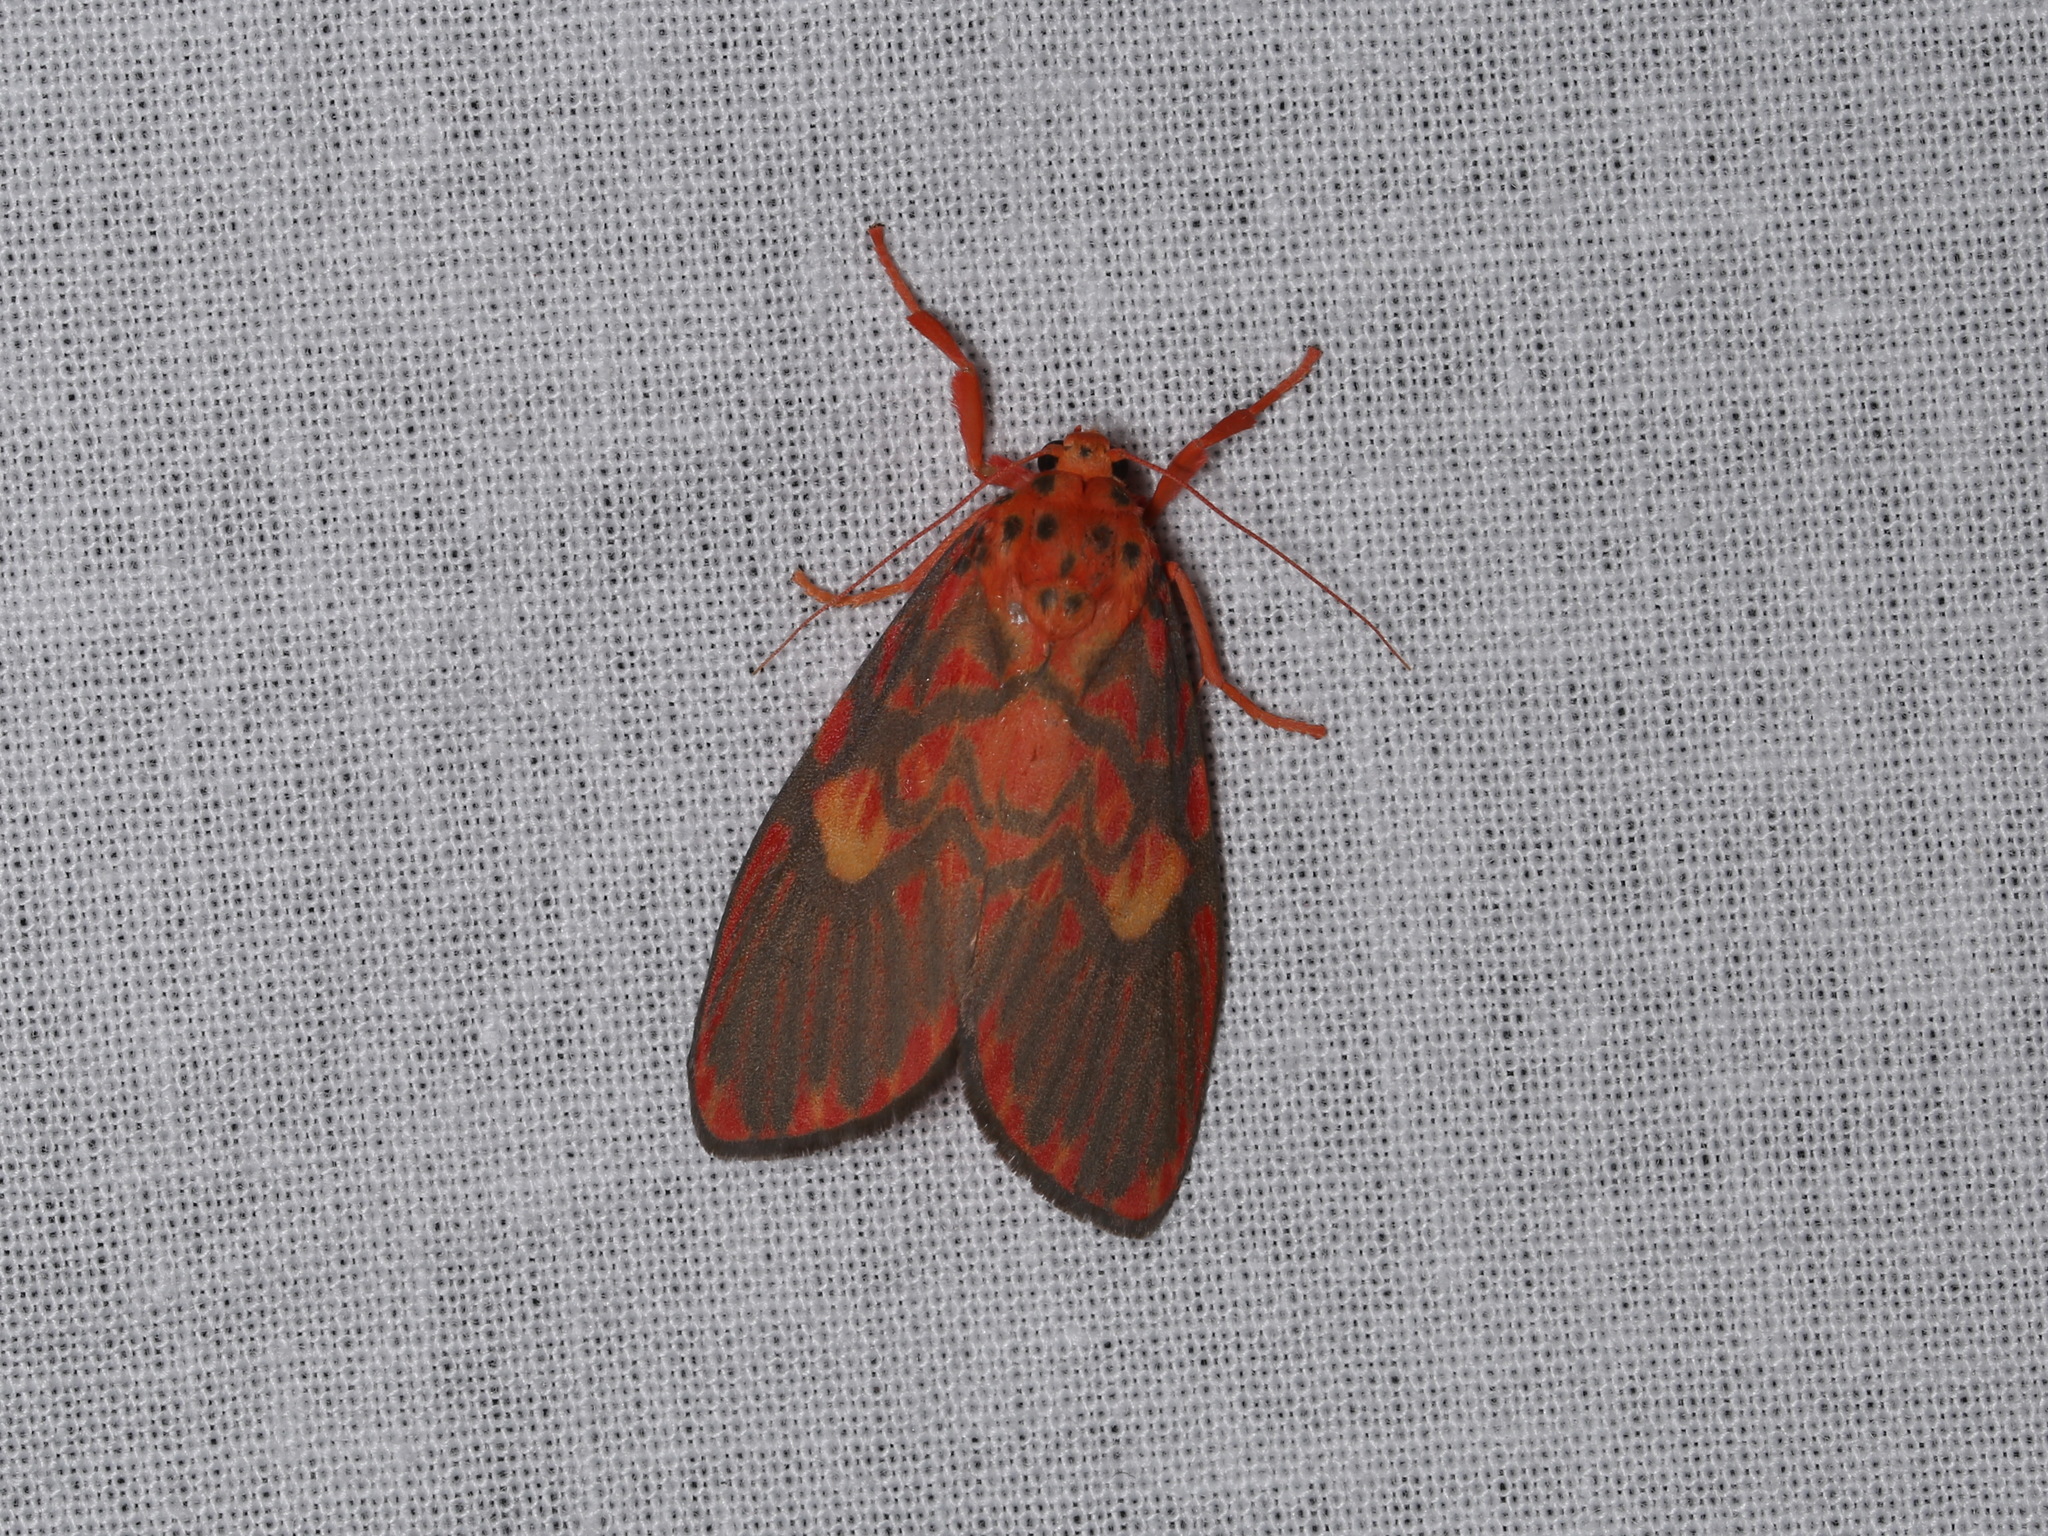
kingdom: Animalia
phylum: Arthropoda
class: Insecta
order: Lepidoptera
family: Erebidae
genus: Ammatho
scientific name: Ammatho cuneonotatus
